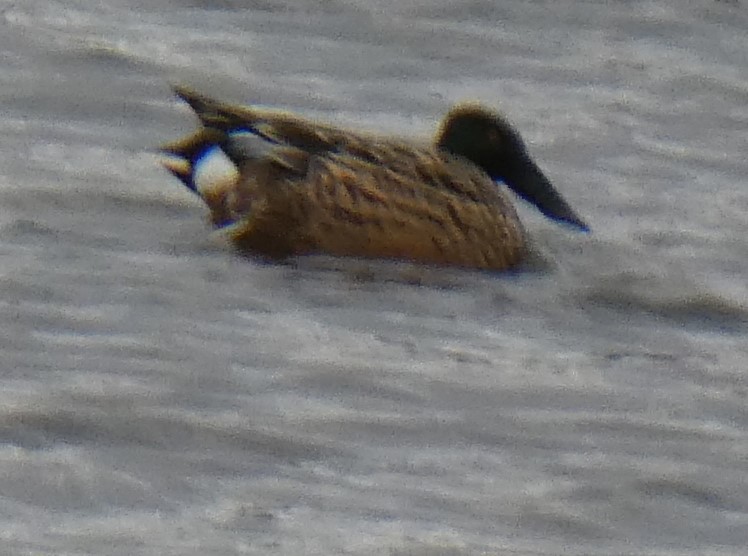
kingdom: Animalia
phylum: Chordata
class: Aves
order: Anseriformes
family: Anatidae
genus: Spatula
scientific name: Spatula clypeata
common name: Northern shoveler
